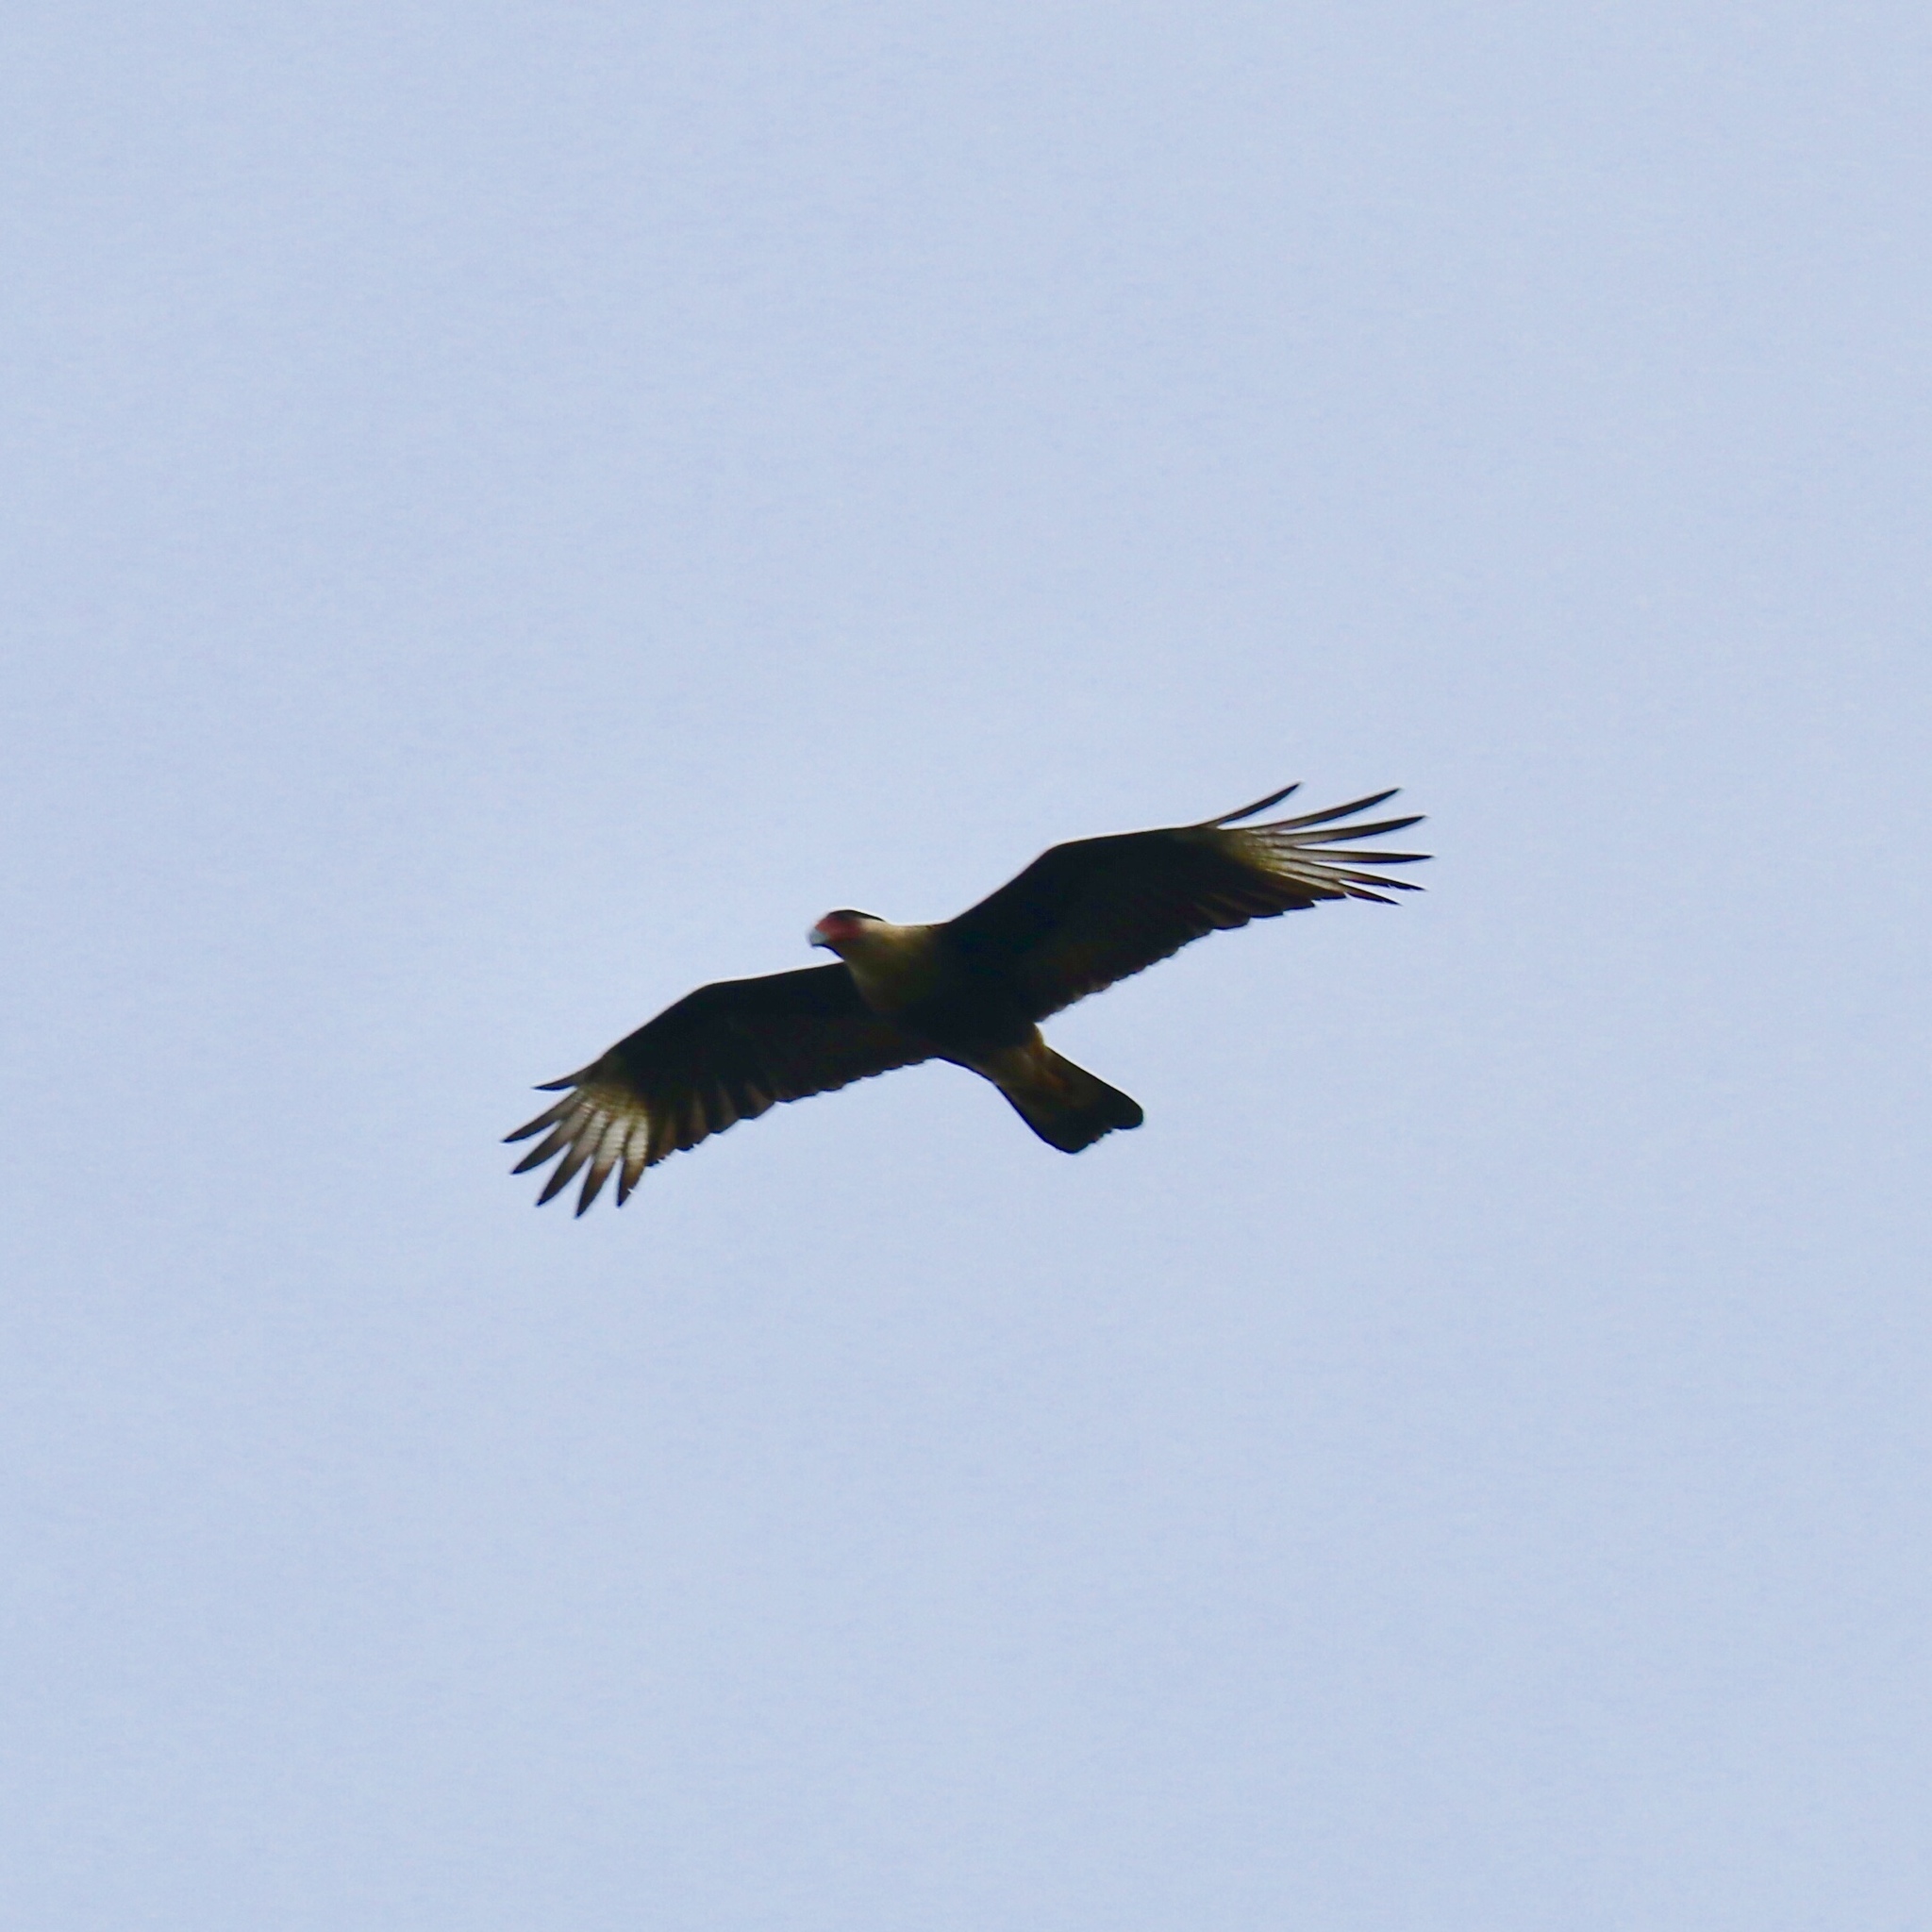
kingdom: Animalia
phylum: Chordata
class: Aves
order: Falconiformes
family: Falconidae
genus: Caracara
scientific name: Caracara plancus
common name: Southern caracara
